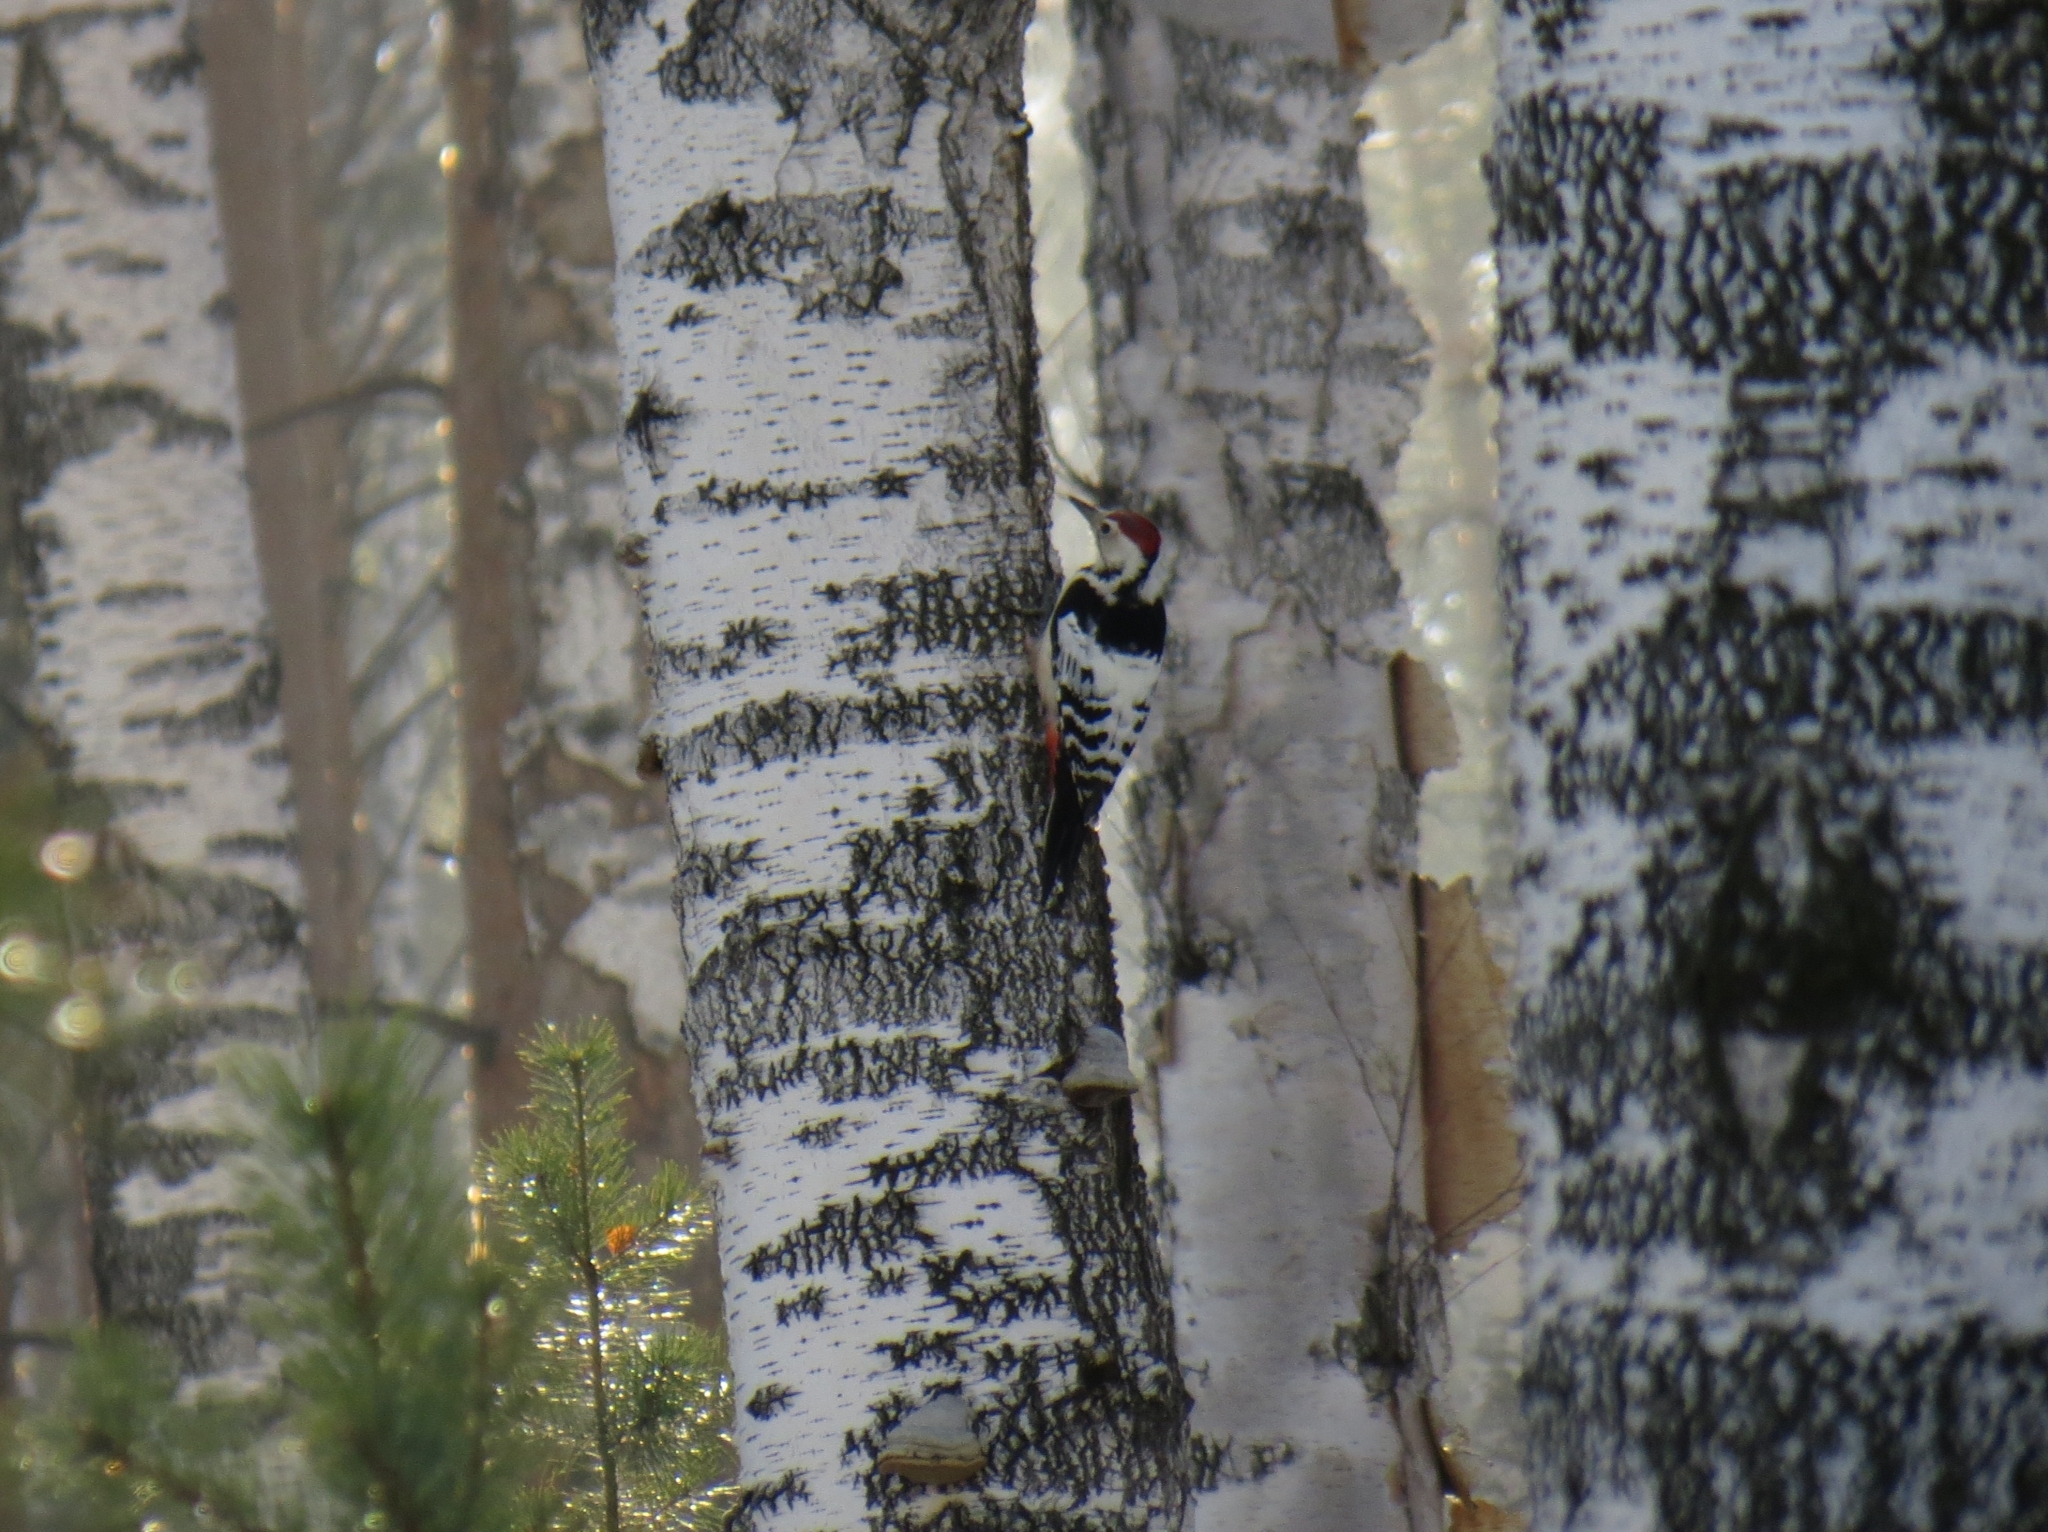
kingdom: Animalia
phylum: Chordata
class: Aves
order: Piciformes
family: Picidae
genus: Dendrocopos
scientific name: Dendrocopos leucotos
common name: White-backed woodpecker
